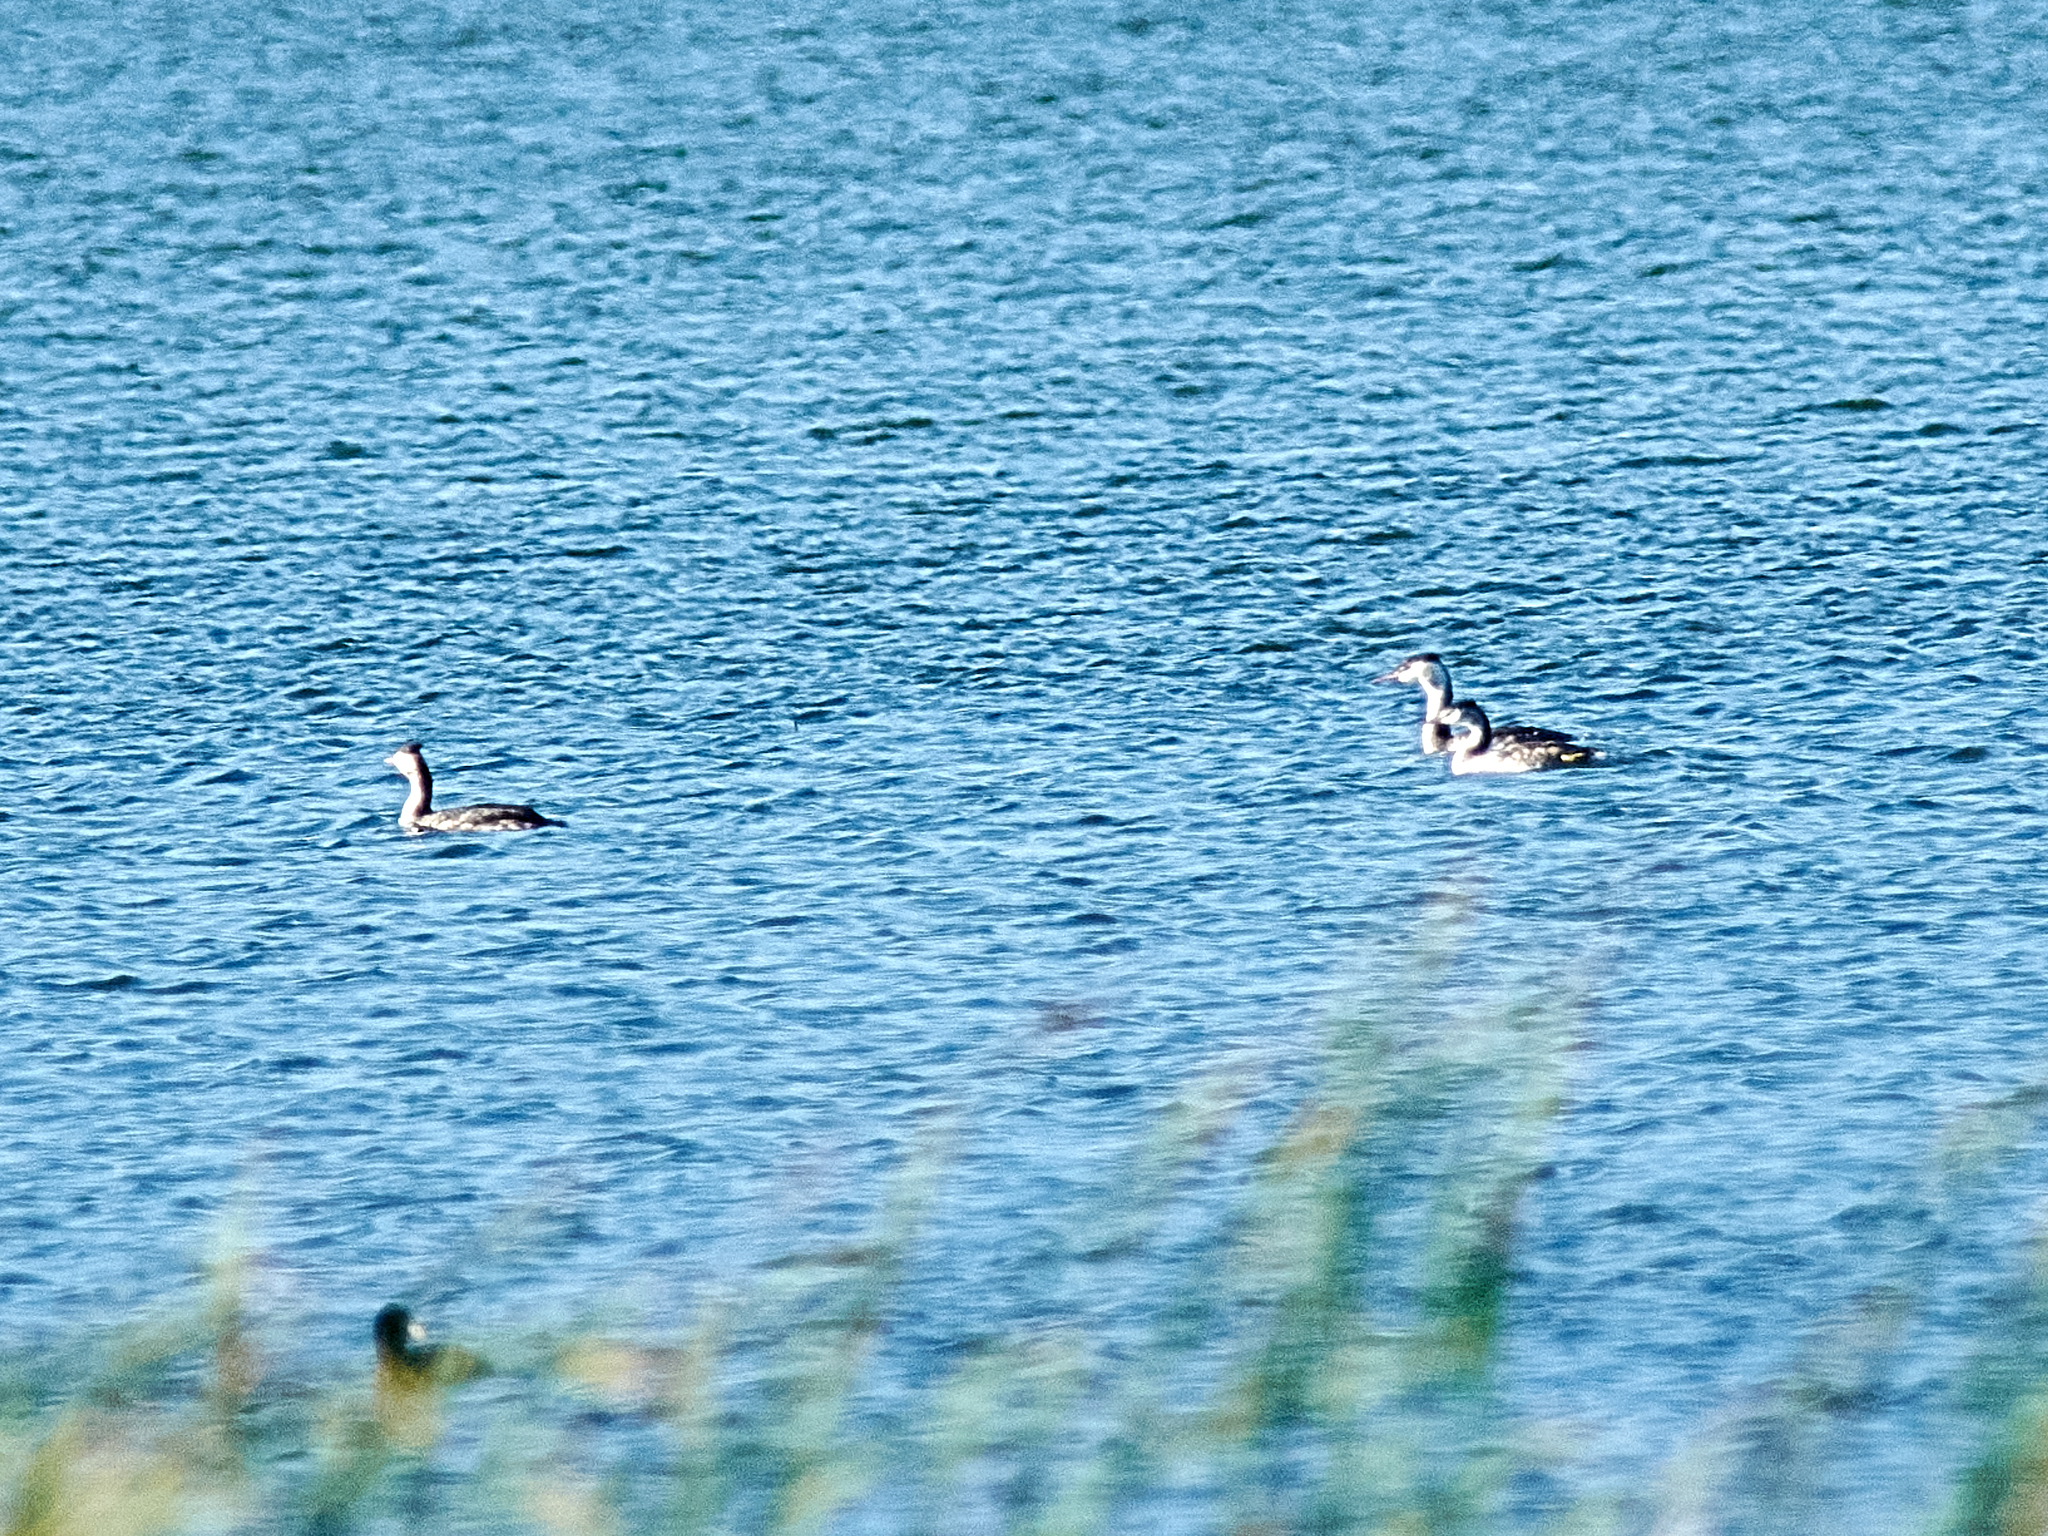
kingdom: Animalia
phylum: Chordata
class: Aves
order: Podicipediformes
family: Podicipedidae
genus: Podiceps
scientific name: Podiceps cristatus
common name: Great crested grebe
